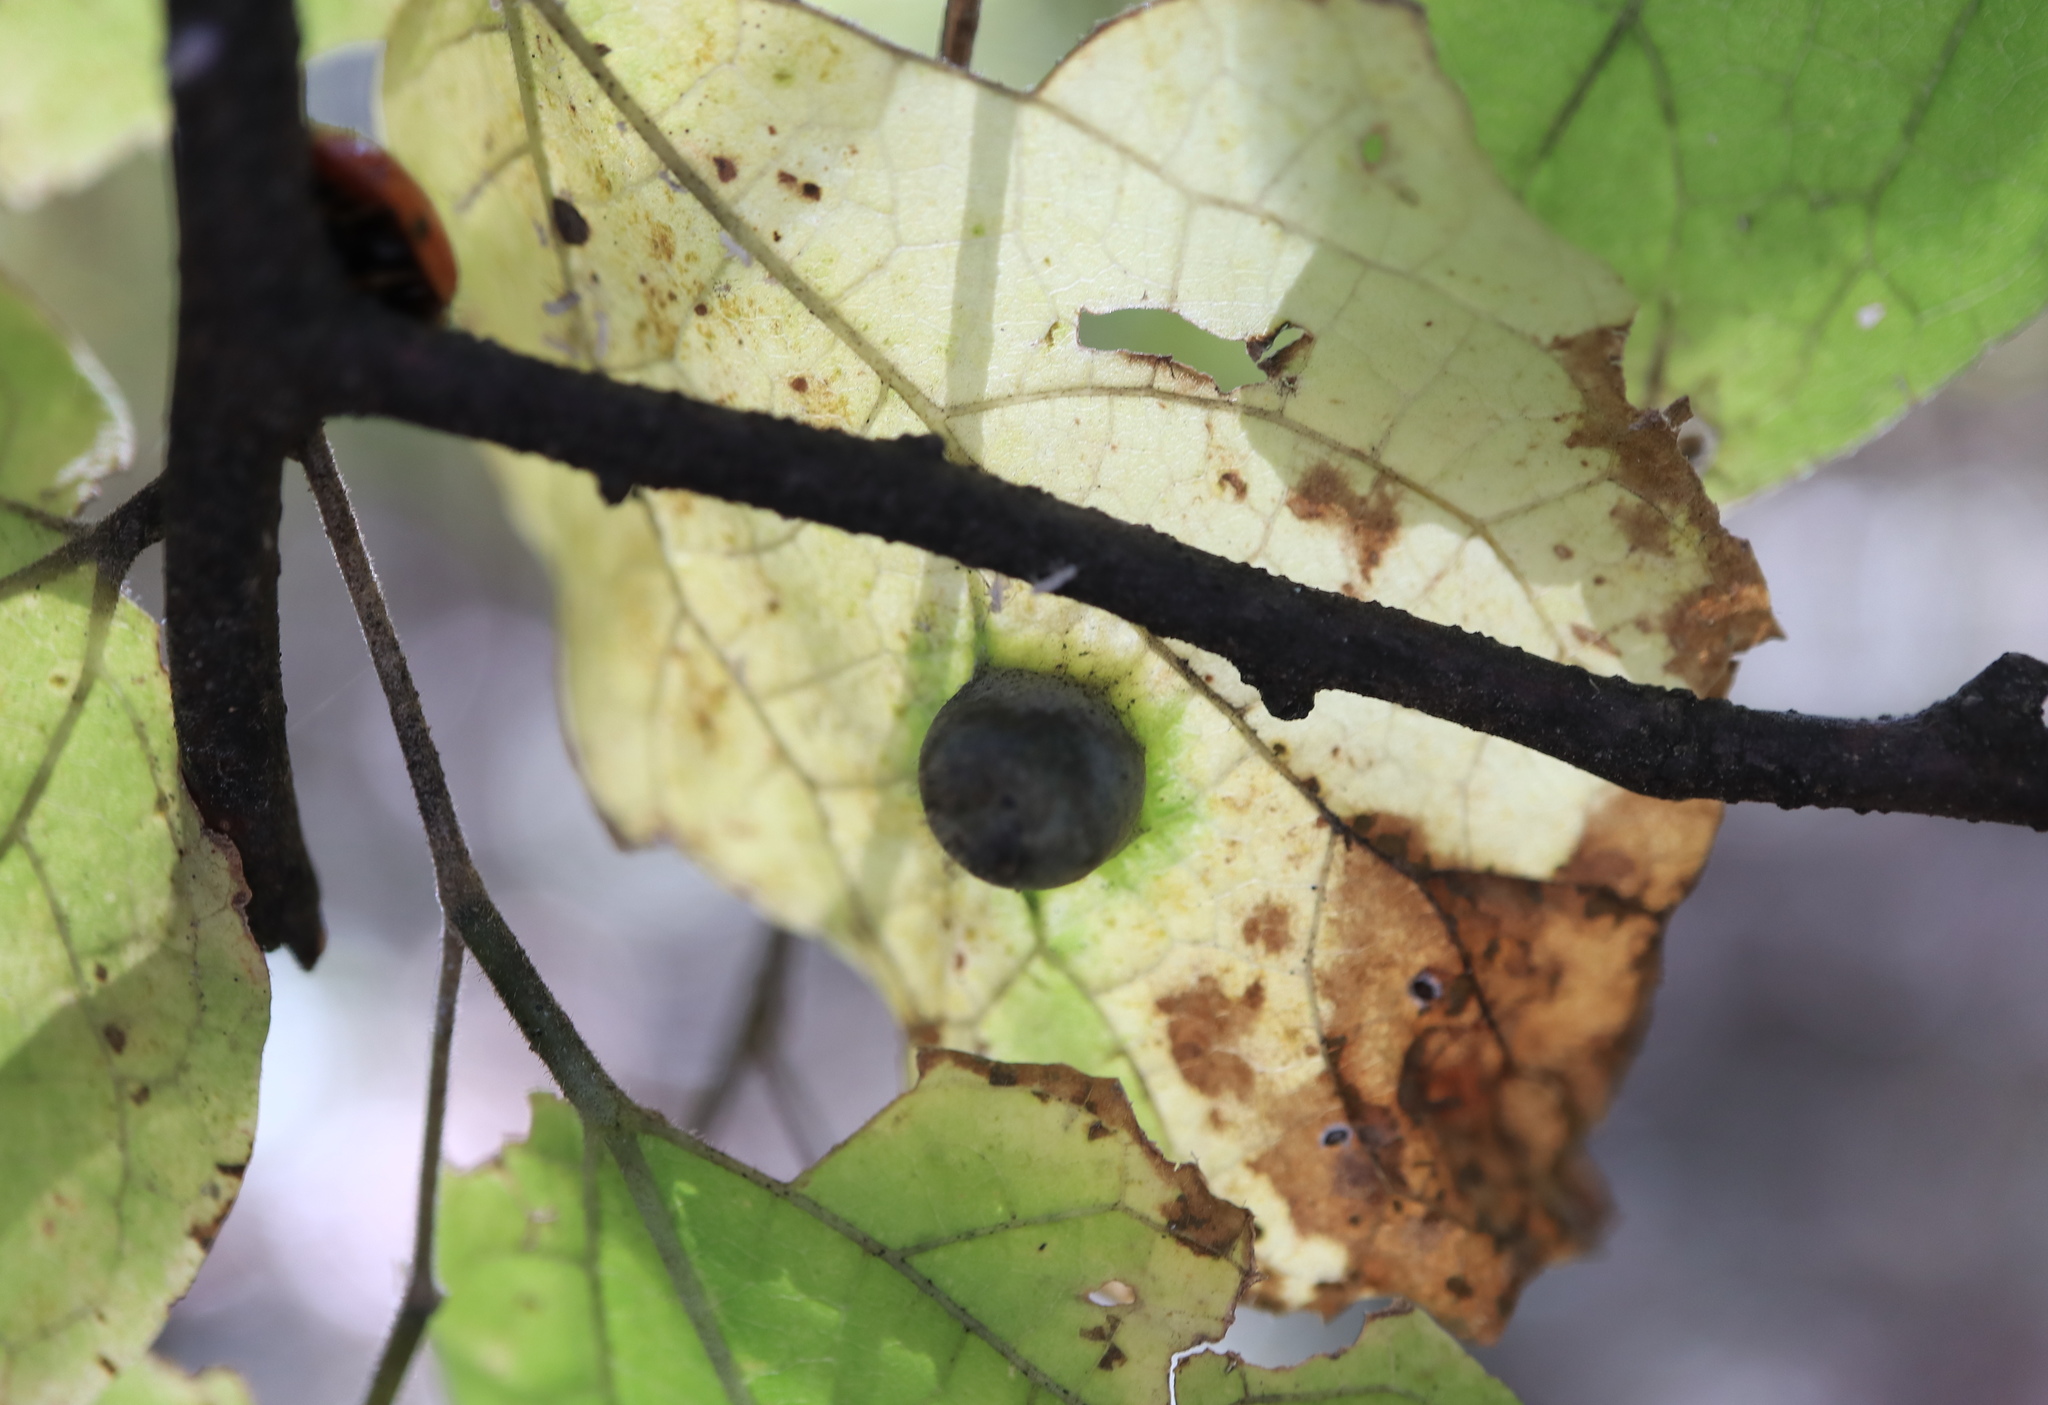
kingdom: Animalia
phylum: Arthropoda
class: Insecta
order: Hemiptera
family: Aphalaridae
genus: Pachypsylla
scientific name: Pachypsylla celtidismamma
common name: Hackberry nipplegall psyllid
